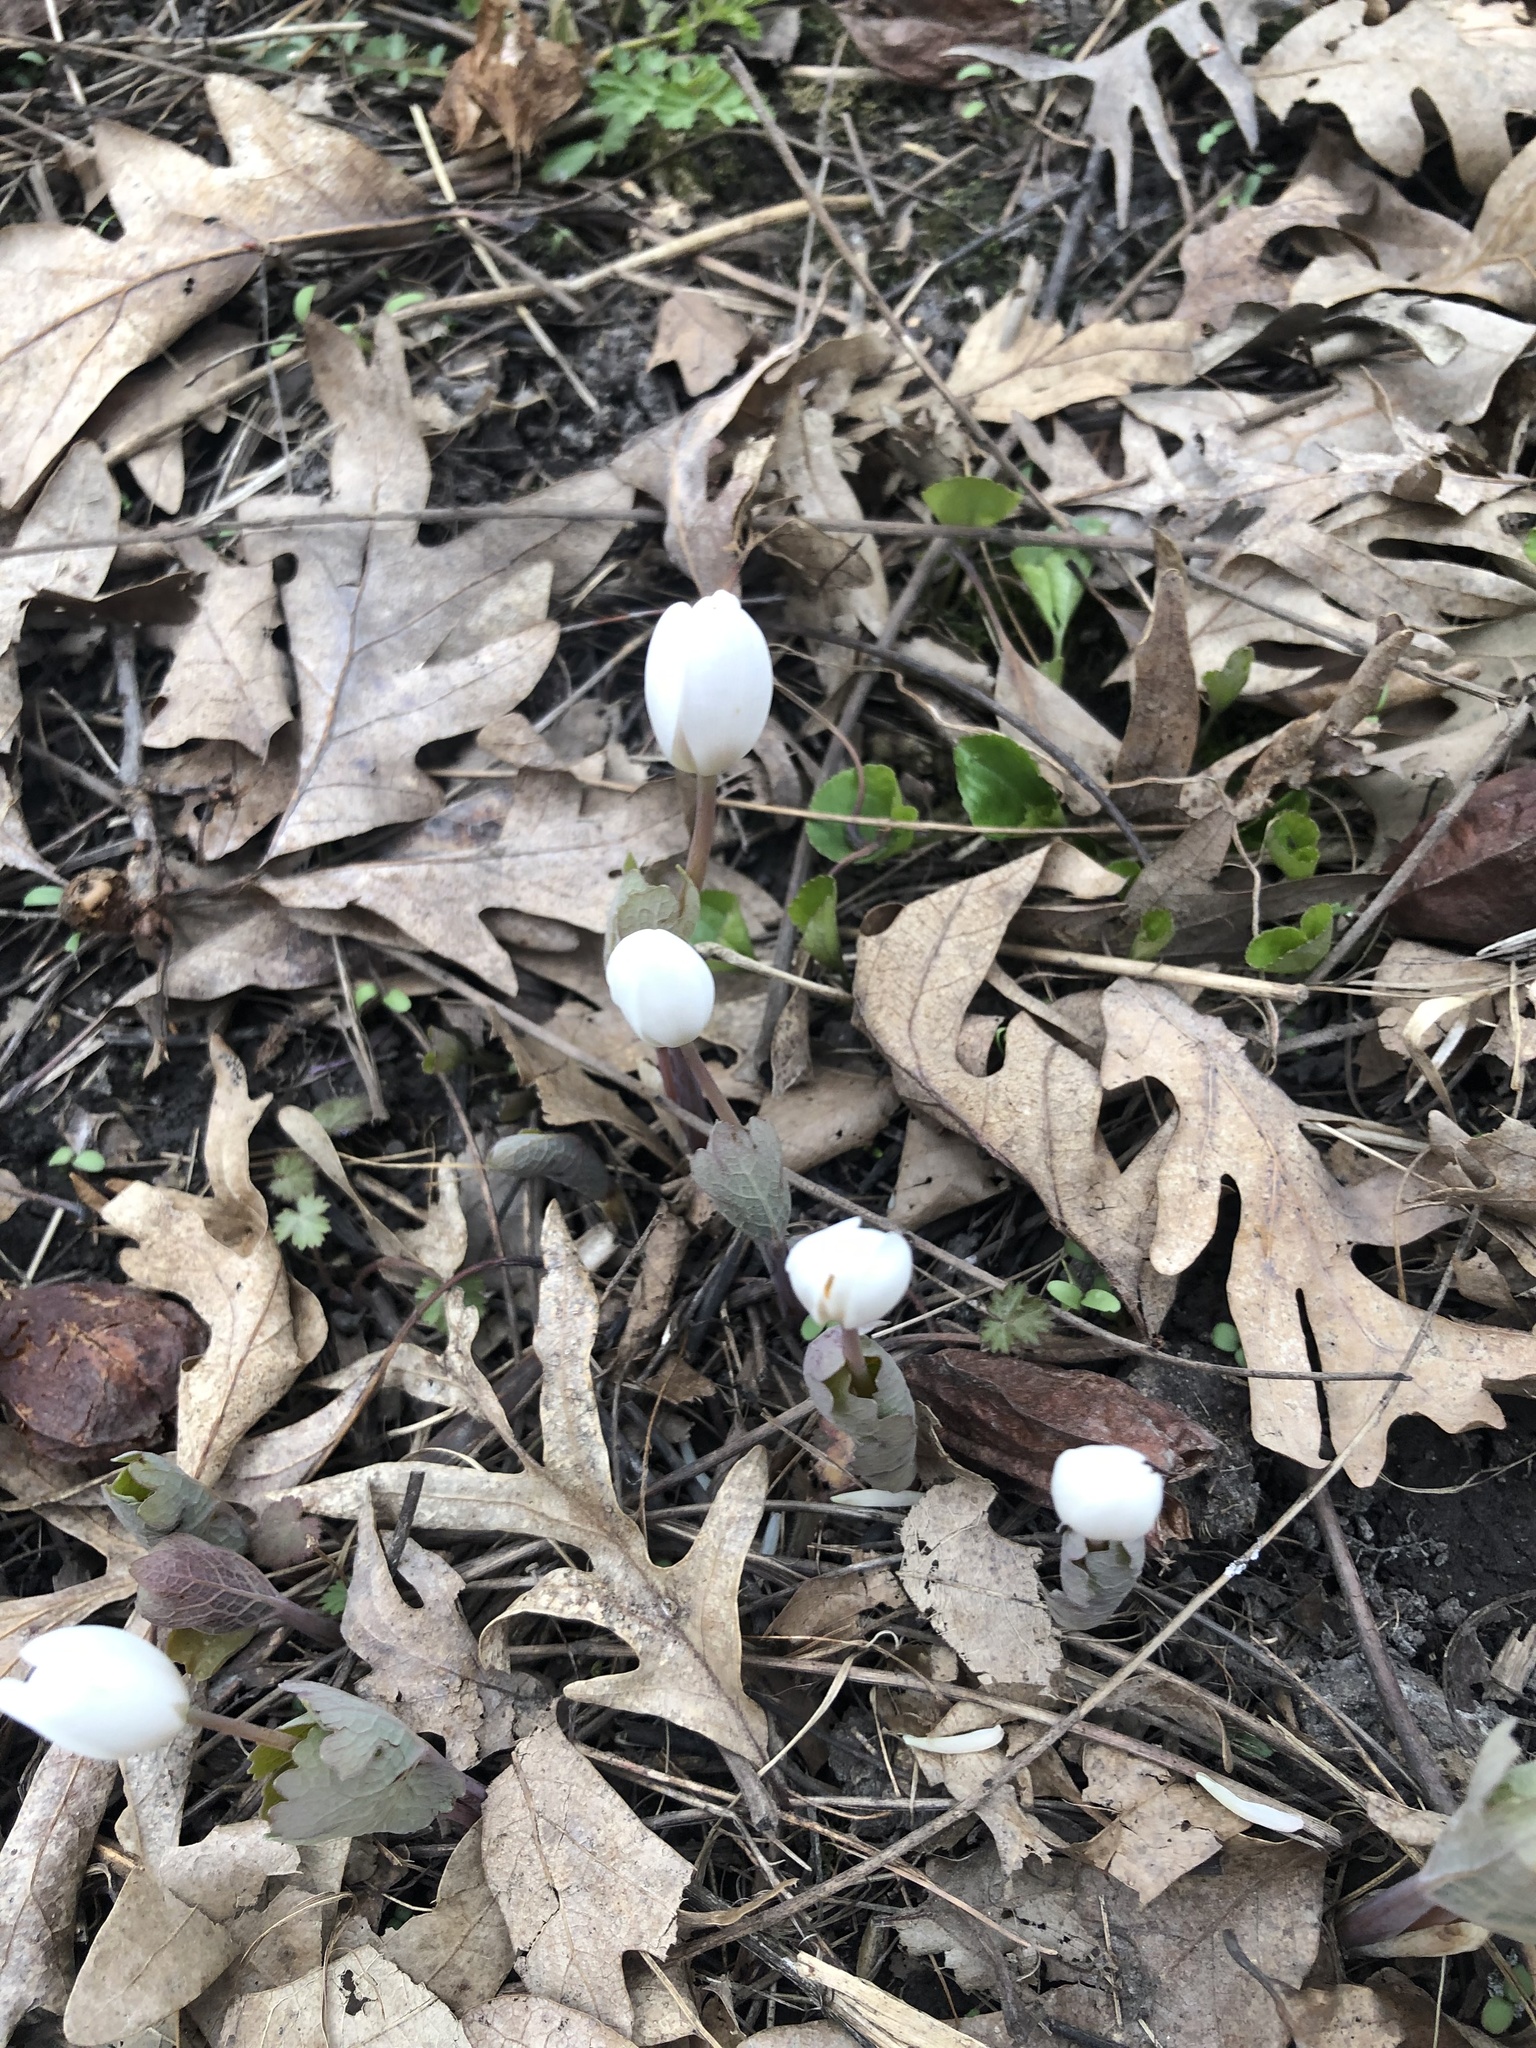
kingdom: Plantae
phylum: Tracheophyta
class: Magnoliopsida
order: Ranunculales
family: Papaveraceae
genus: Sanguinaria
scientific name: Sanguinaria canadensis
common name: Bloodroot
